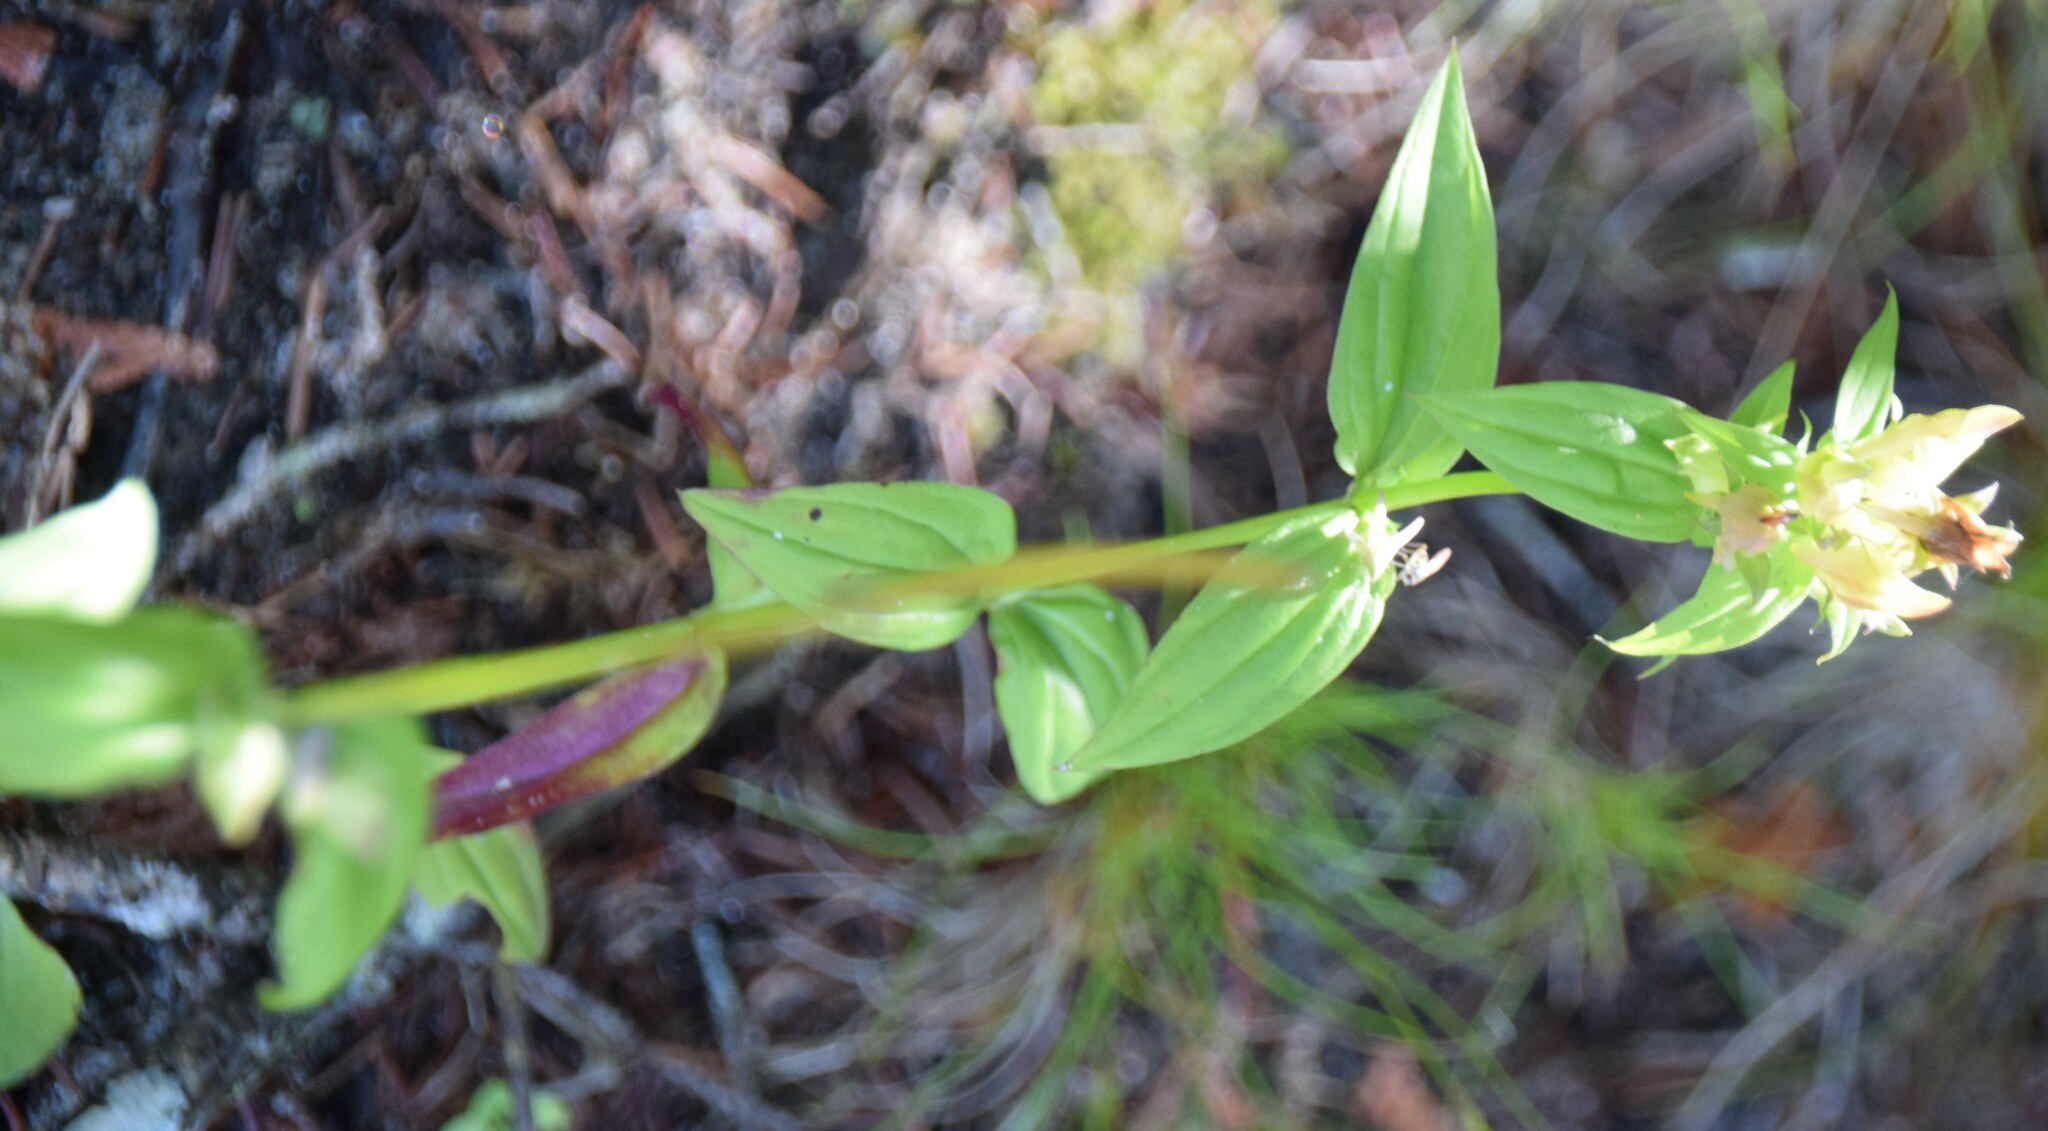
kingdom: Plantae
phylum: Tracheophyta
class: Magnoliopsida
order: Gentianales
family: Gentianaceae
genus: Halenia
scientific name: Halenia deflexa
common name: American spurred gentian
